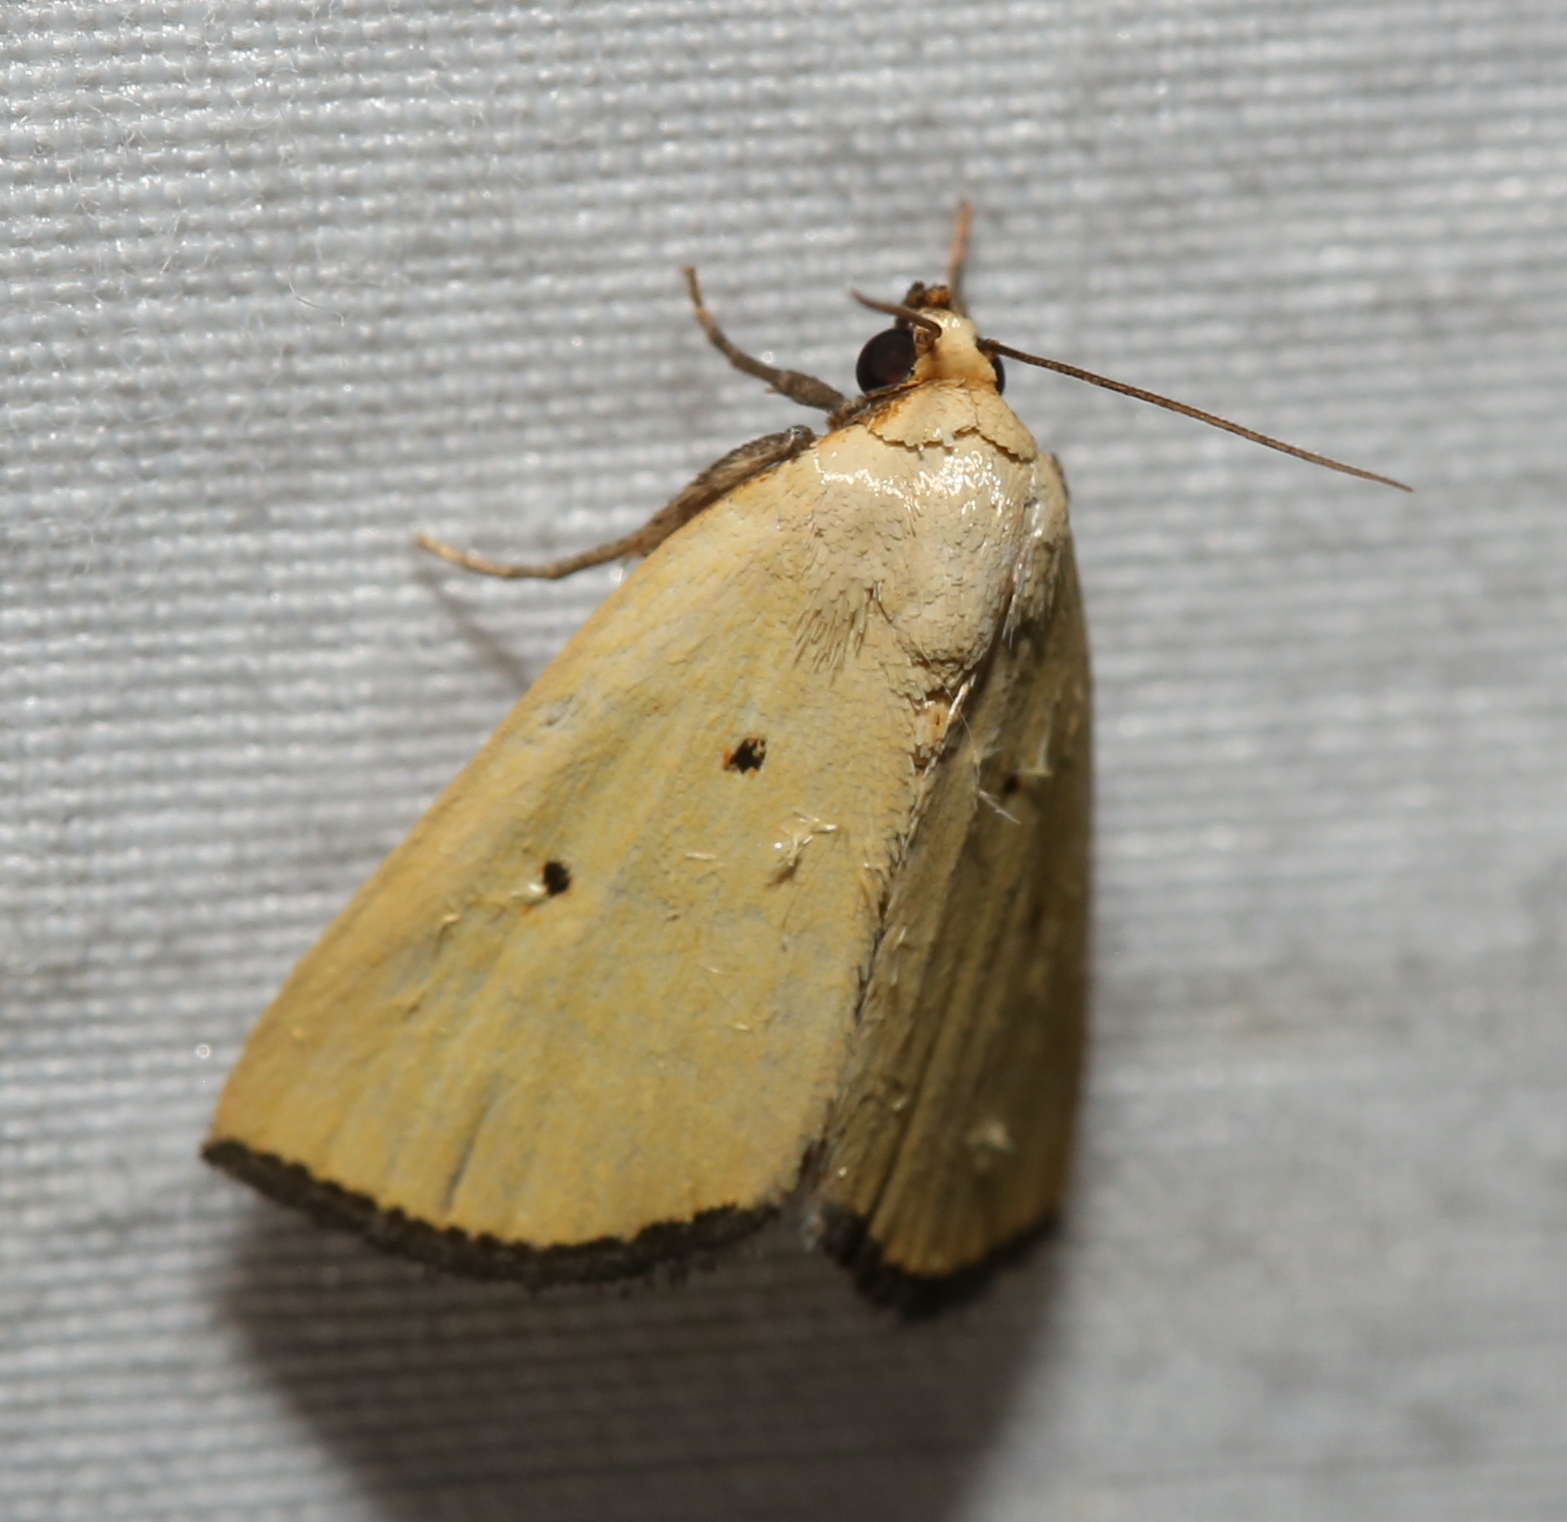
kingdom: Animalia
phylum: Arthropoda
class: Insecta
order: Lepidoptera
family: Noctuidae
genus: Marimatha
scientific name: Marimatha nigrofimbria
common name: Black-bordered lemon moth
